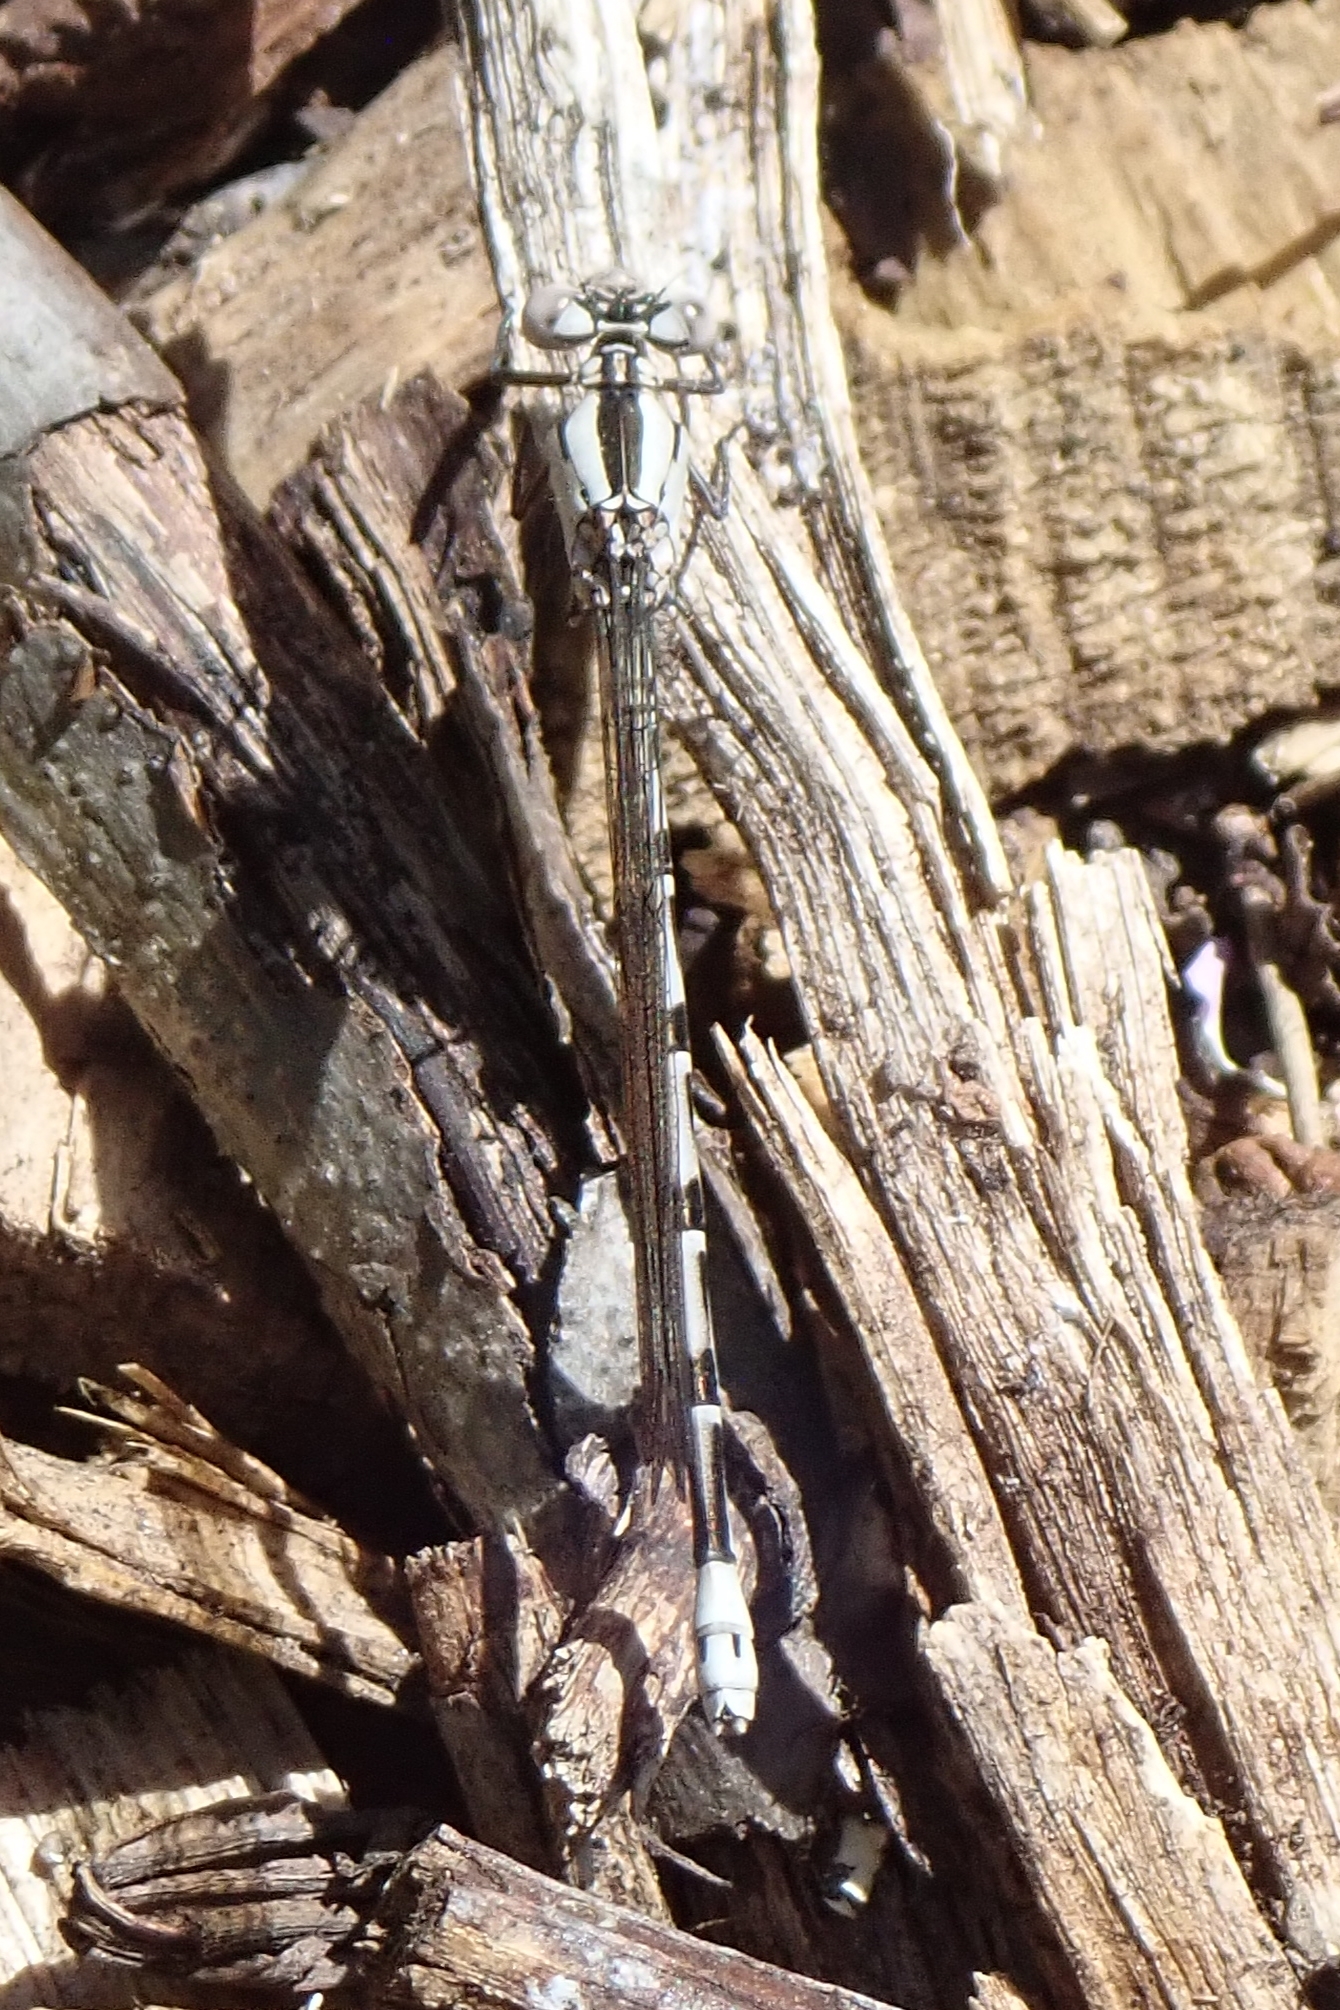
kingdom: Animalia
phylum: Arthropoda
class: Insecta
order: Odonata
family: Coenagrionidae
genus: Argia
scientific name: Argia vivida
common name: Vivid dancer
